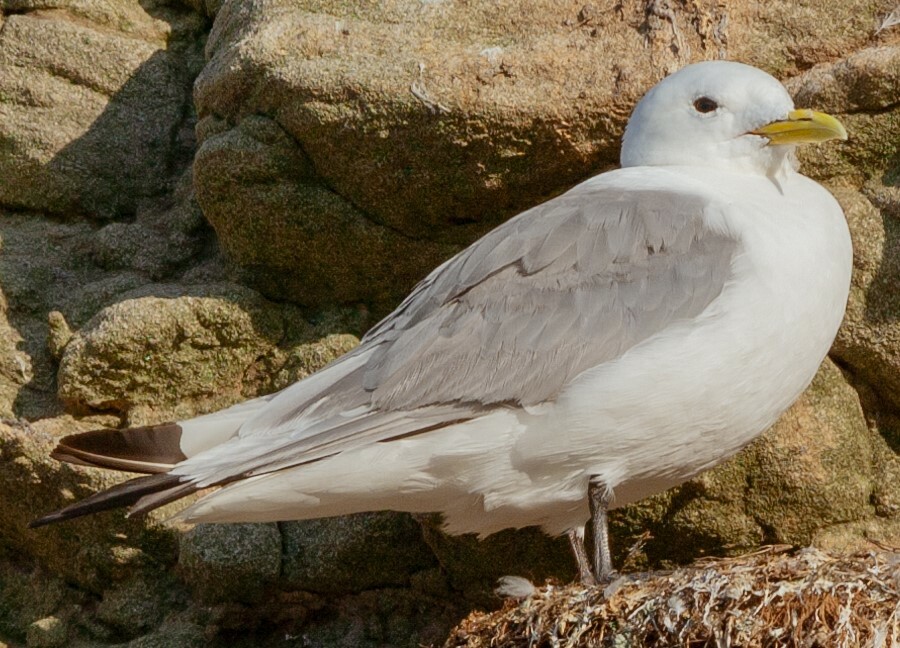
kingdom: Animalia
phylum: Chordata
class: Aves
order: Charadriiformes
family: Laridae
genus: Rissa
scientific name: Rissa tridactyla
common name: Black-legged kittiwake
